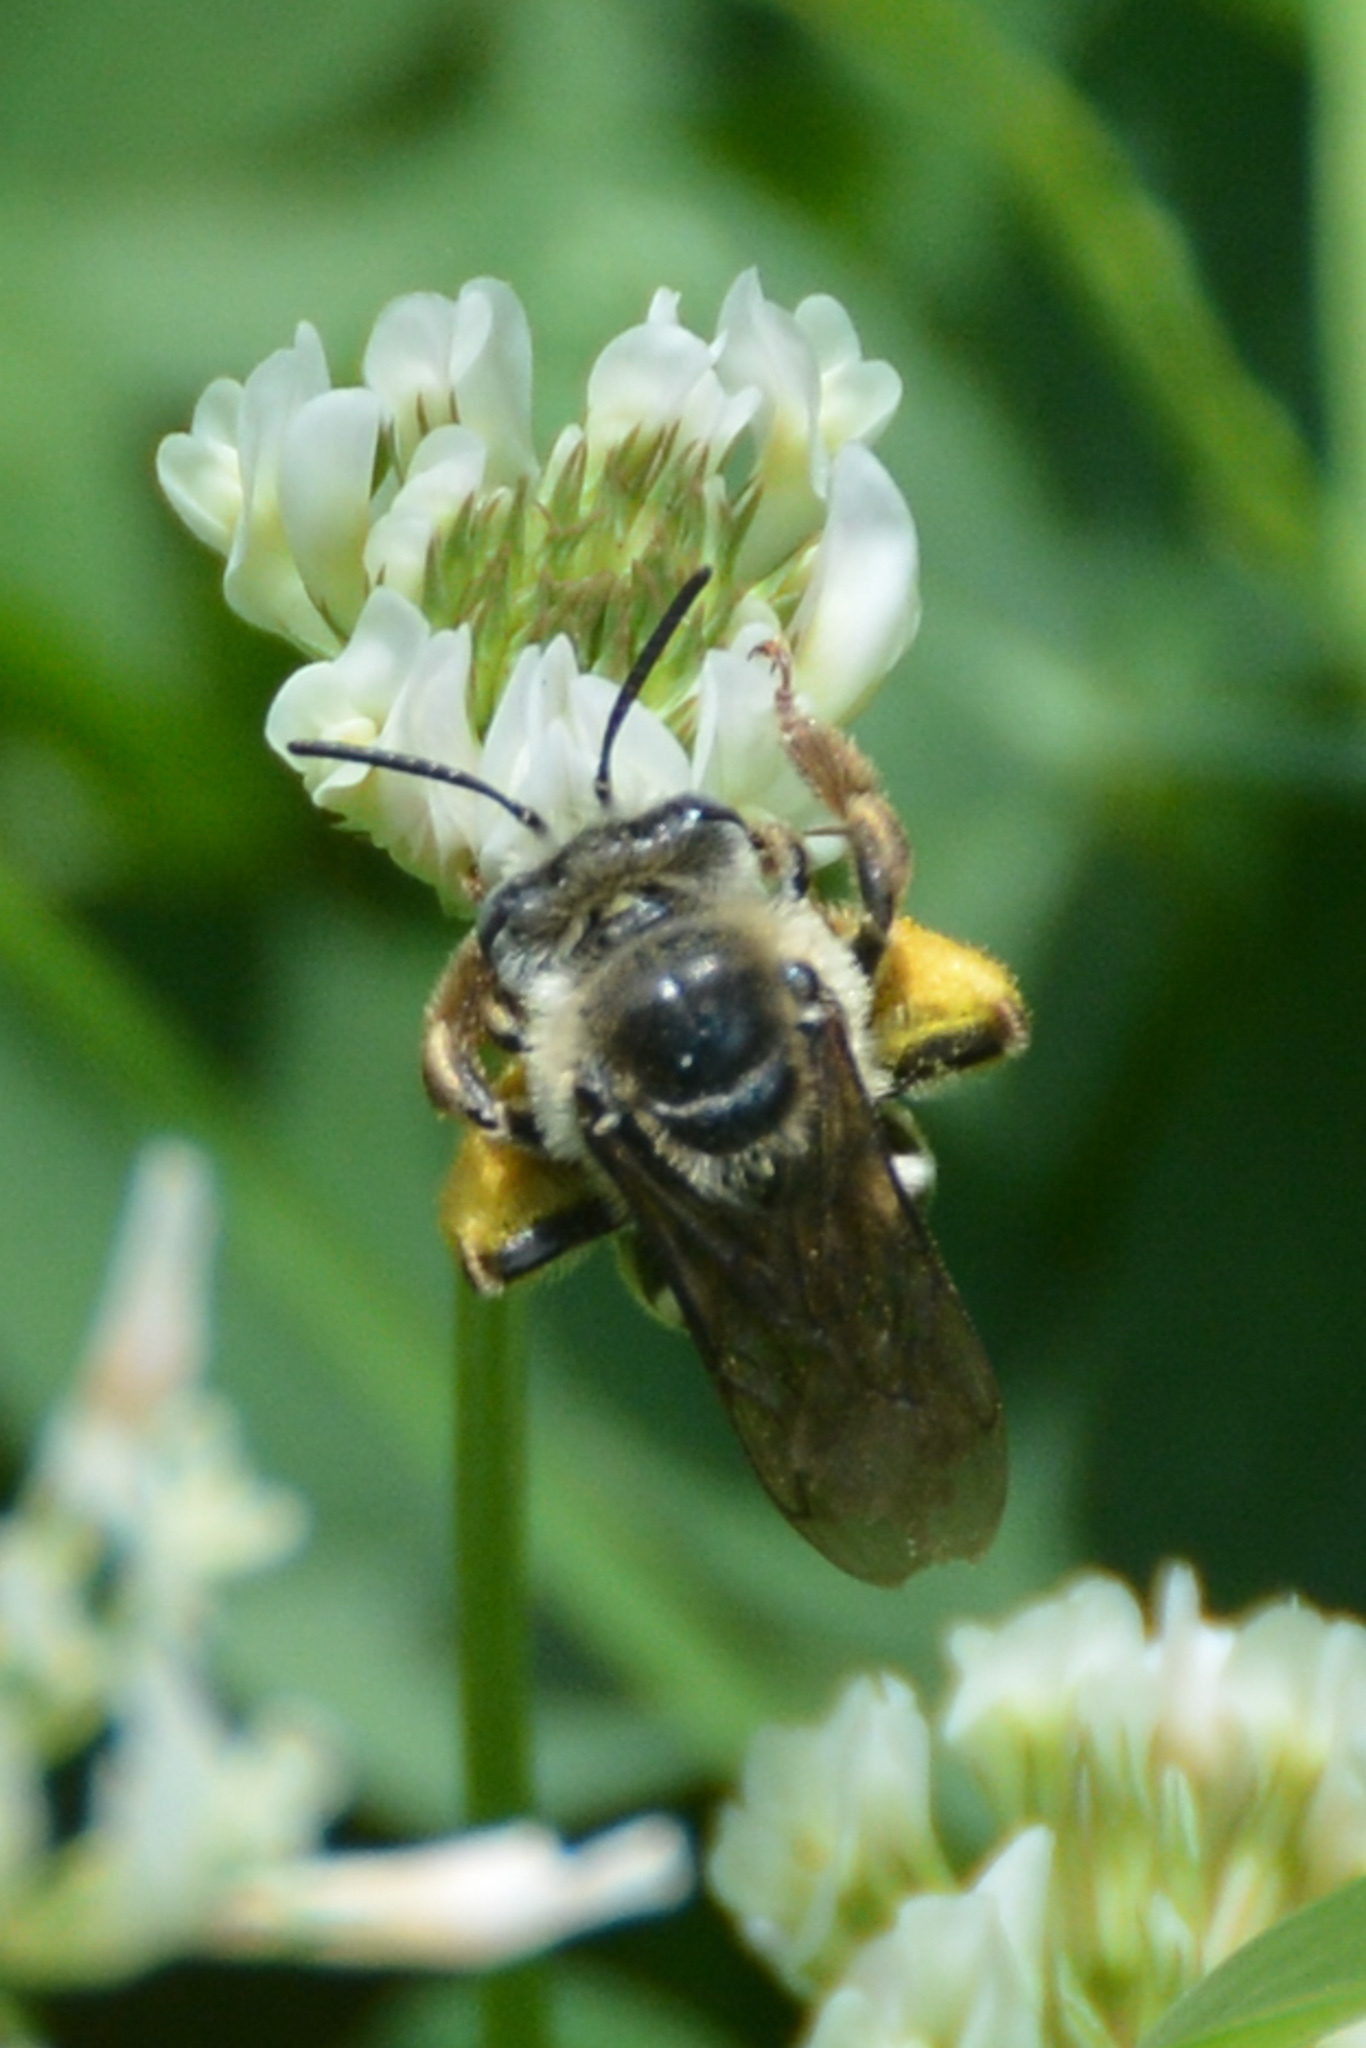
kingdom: Animalia
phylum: Arthropoda
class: Insecta
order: Hymenoptera
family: Apidae
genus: Melissodes
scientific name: Melissodes communis
